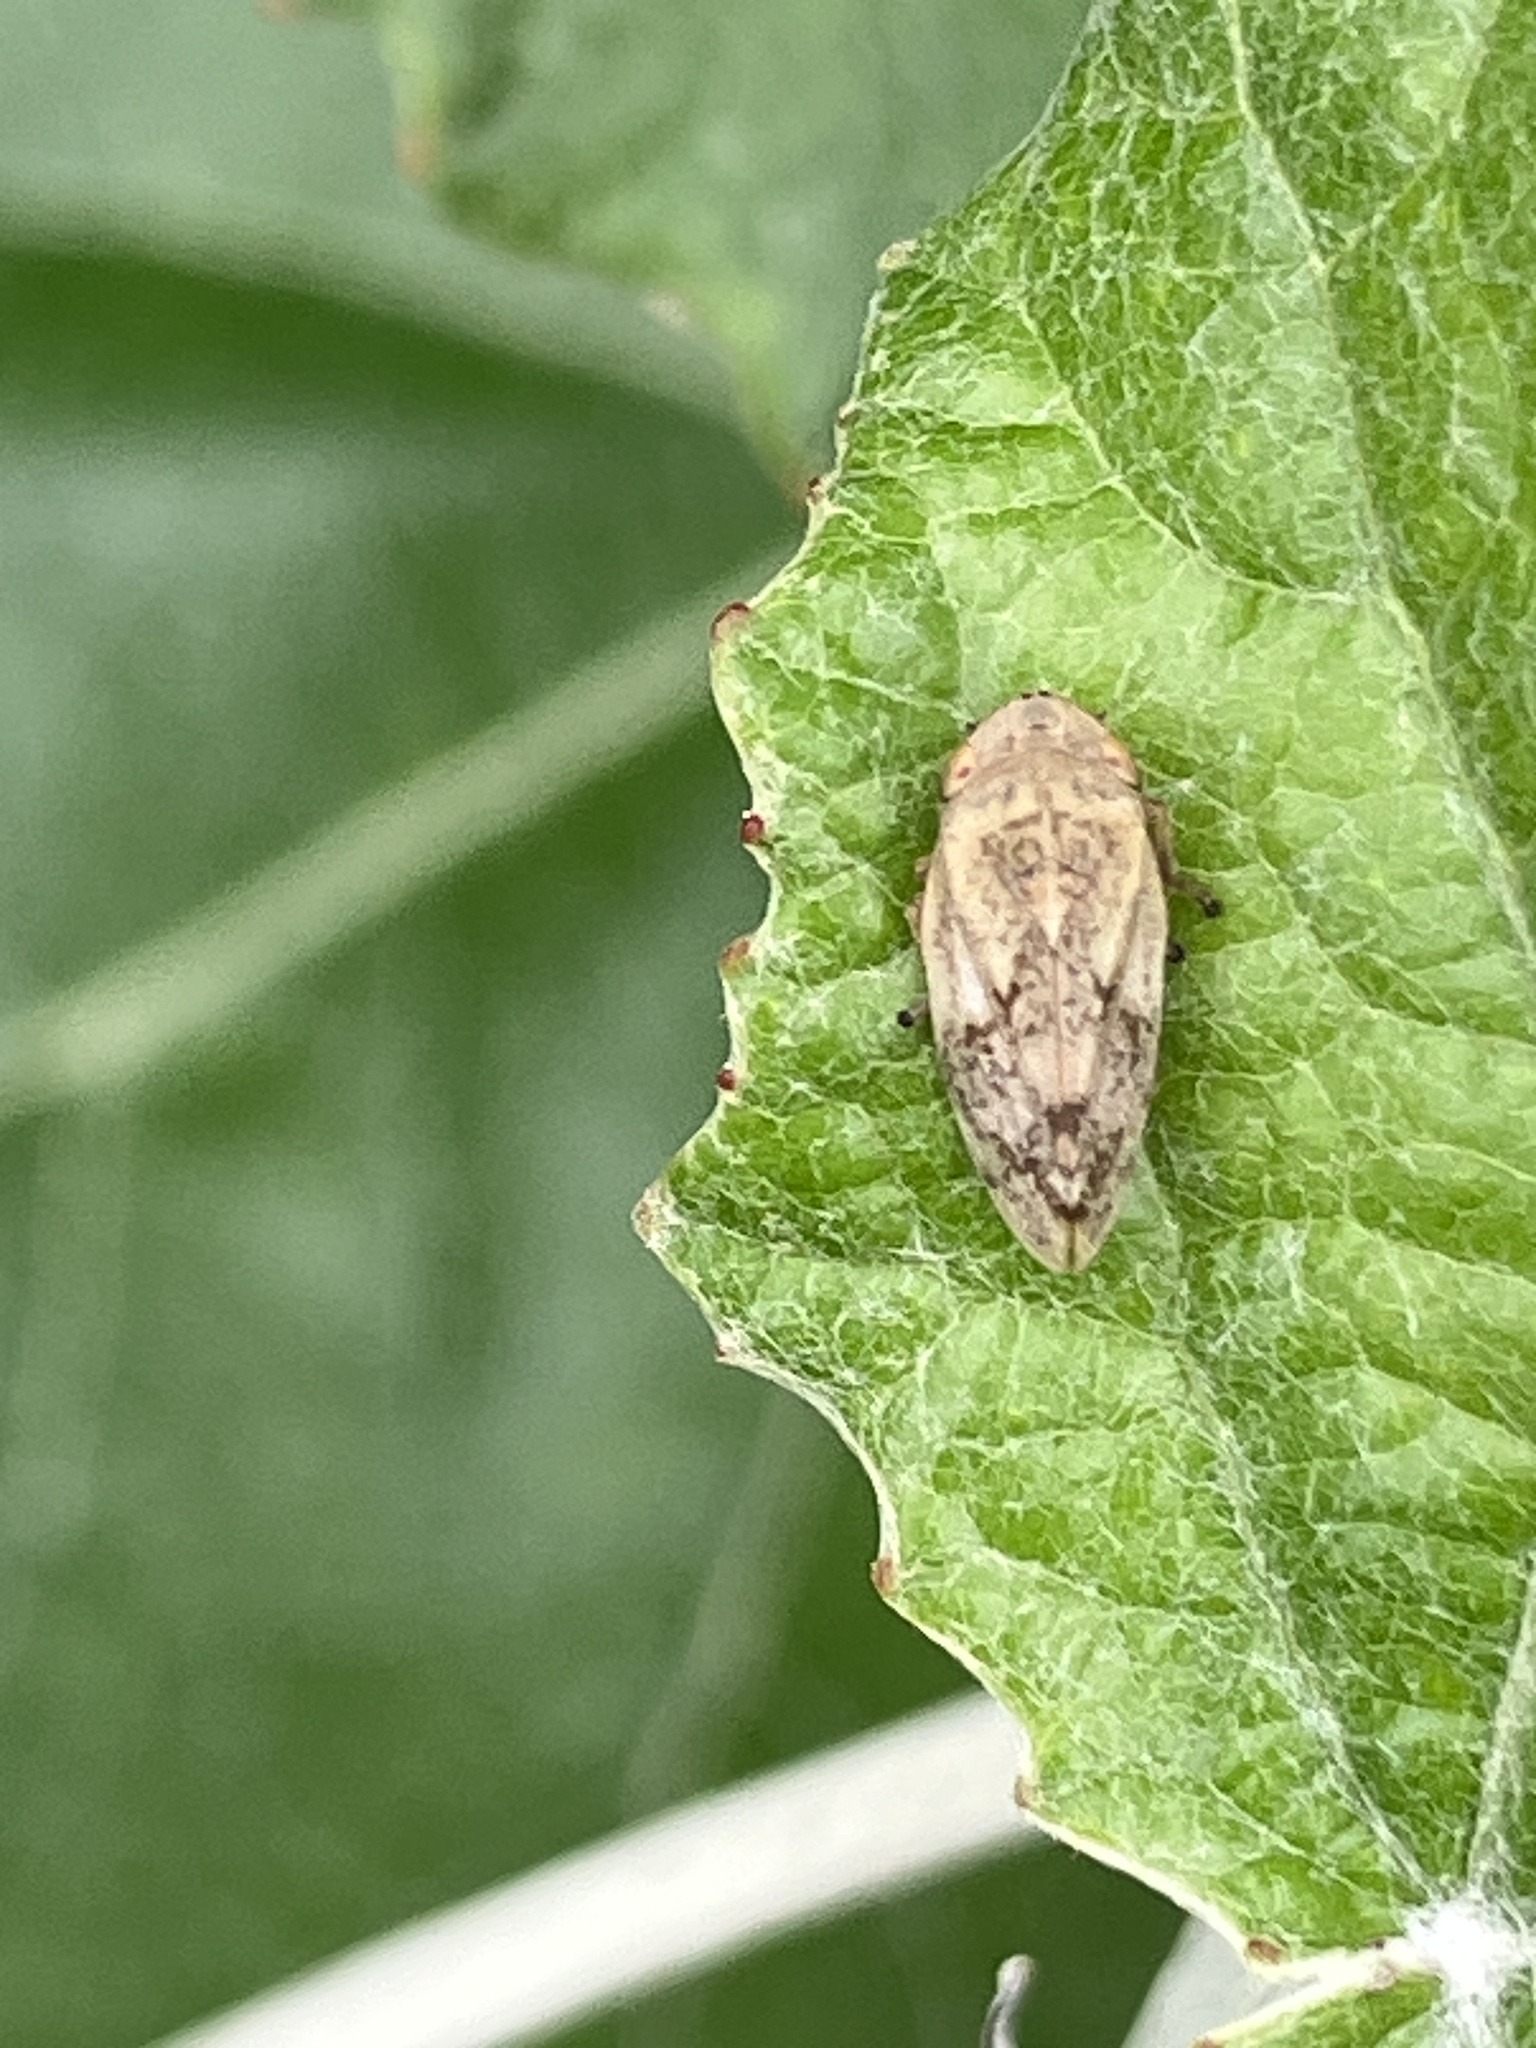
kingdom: Animalia
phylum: Arthropoda
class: Insecta
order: Hemiptera
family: Aphrophoridae
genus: Philaenus
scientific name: Philaenus spumarius
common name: Meadow spittlebug
